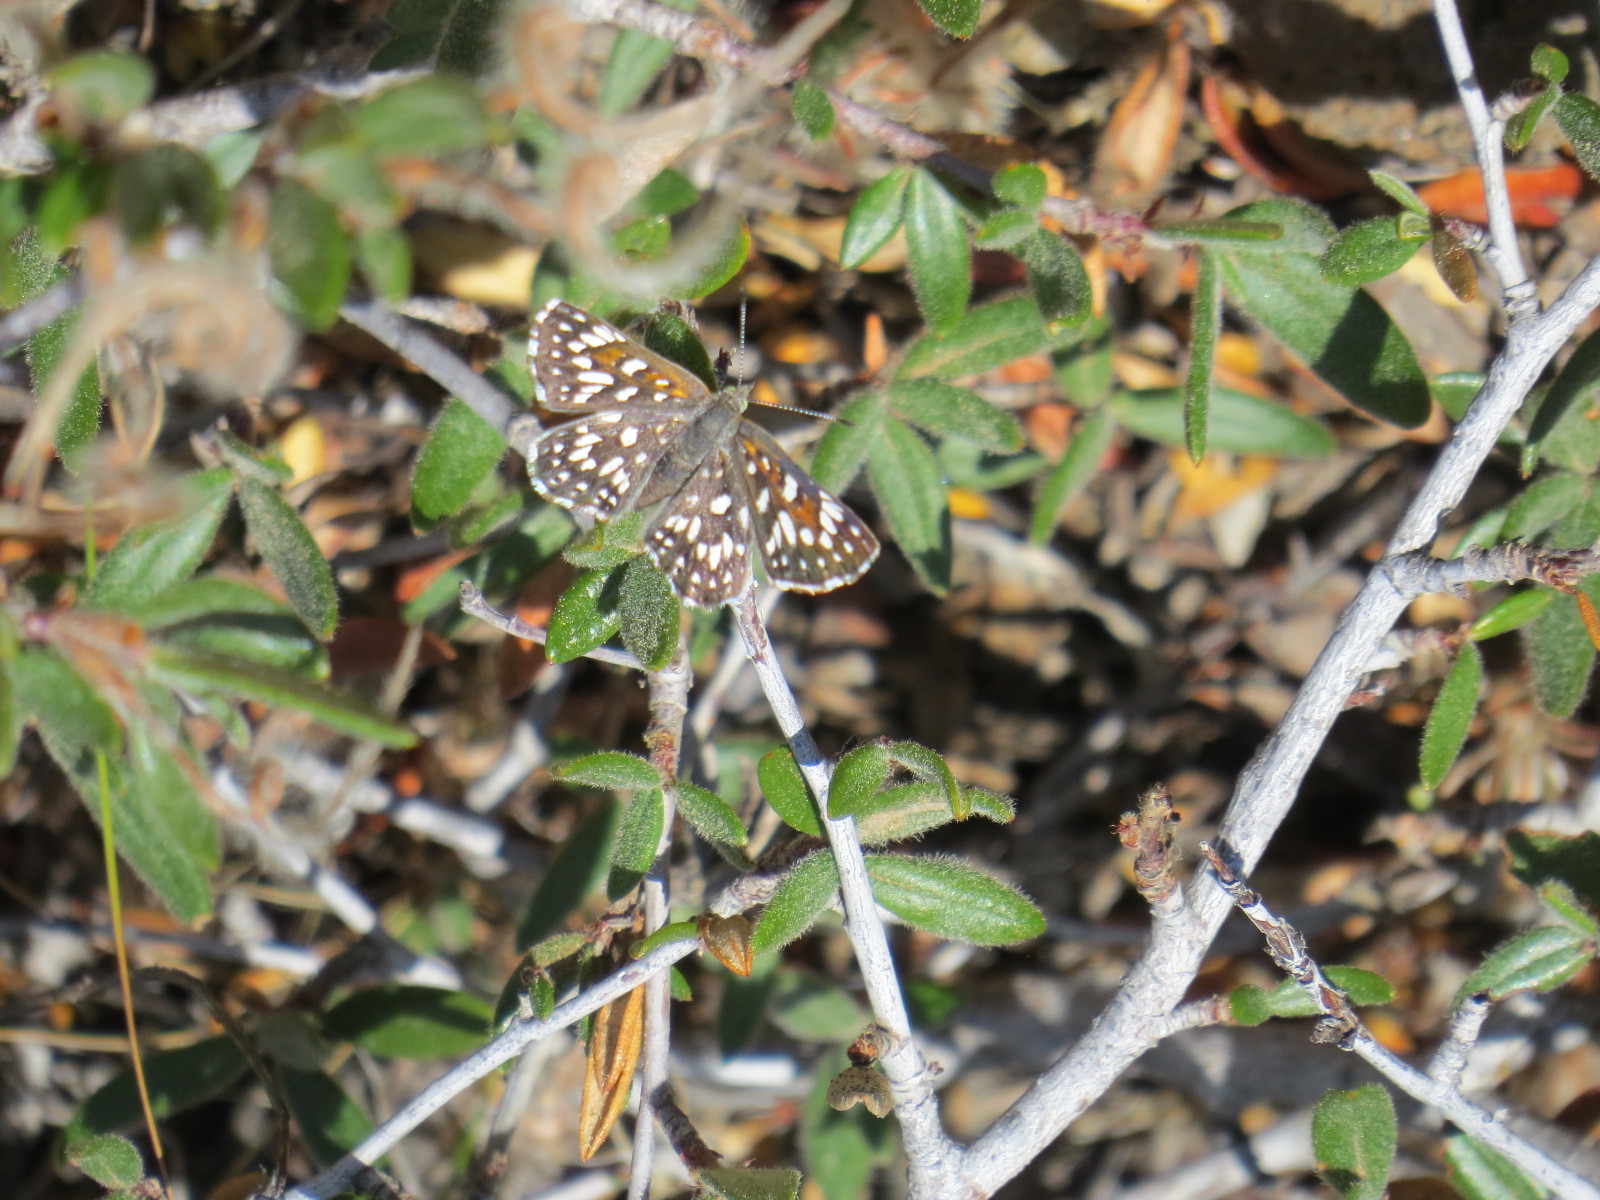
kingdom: Animalia
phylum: Arthropoda
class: Insecta
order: Lepidoptera
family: Riodinidae
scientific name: Riodinidae
